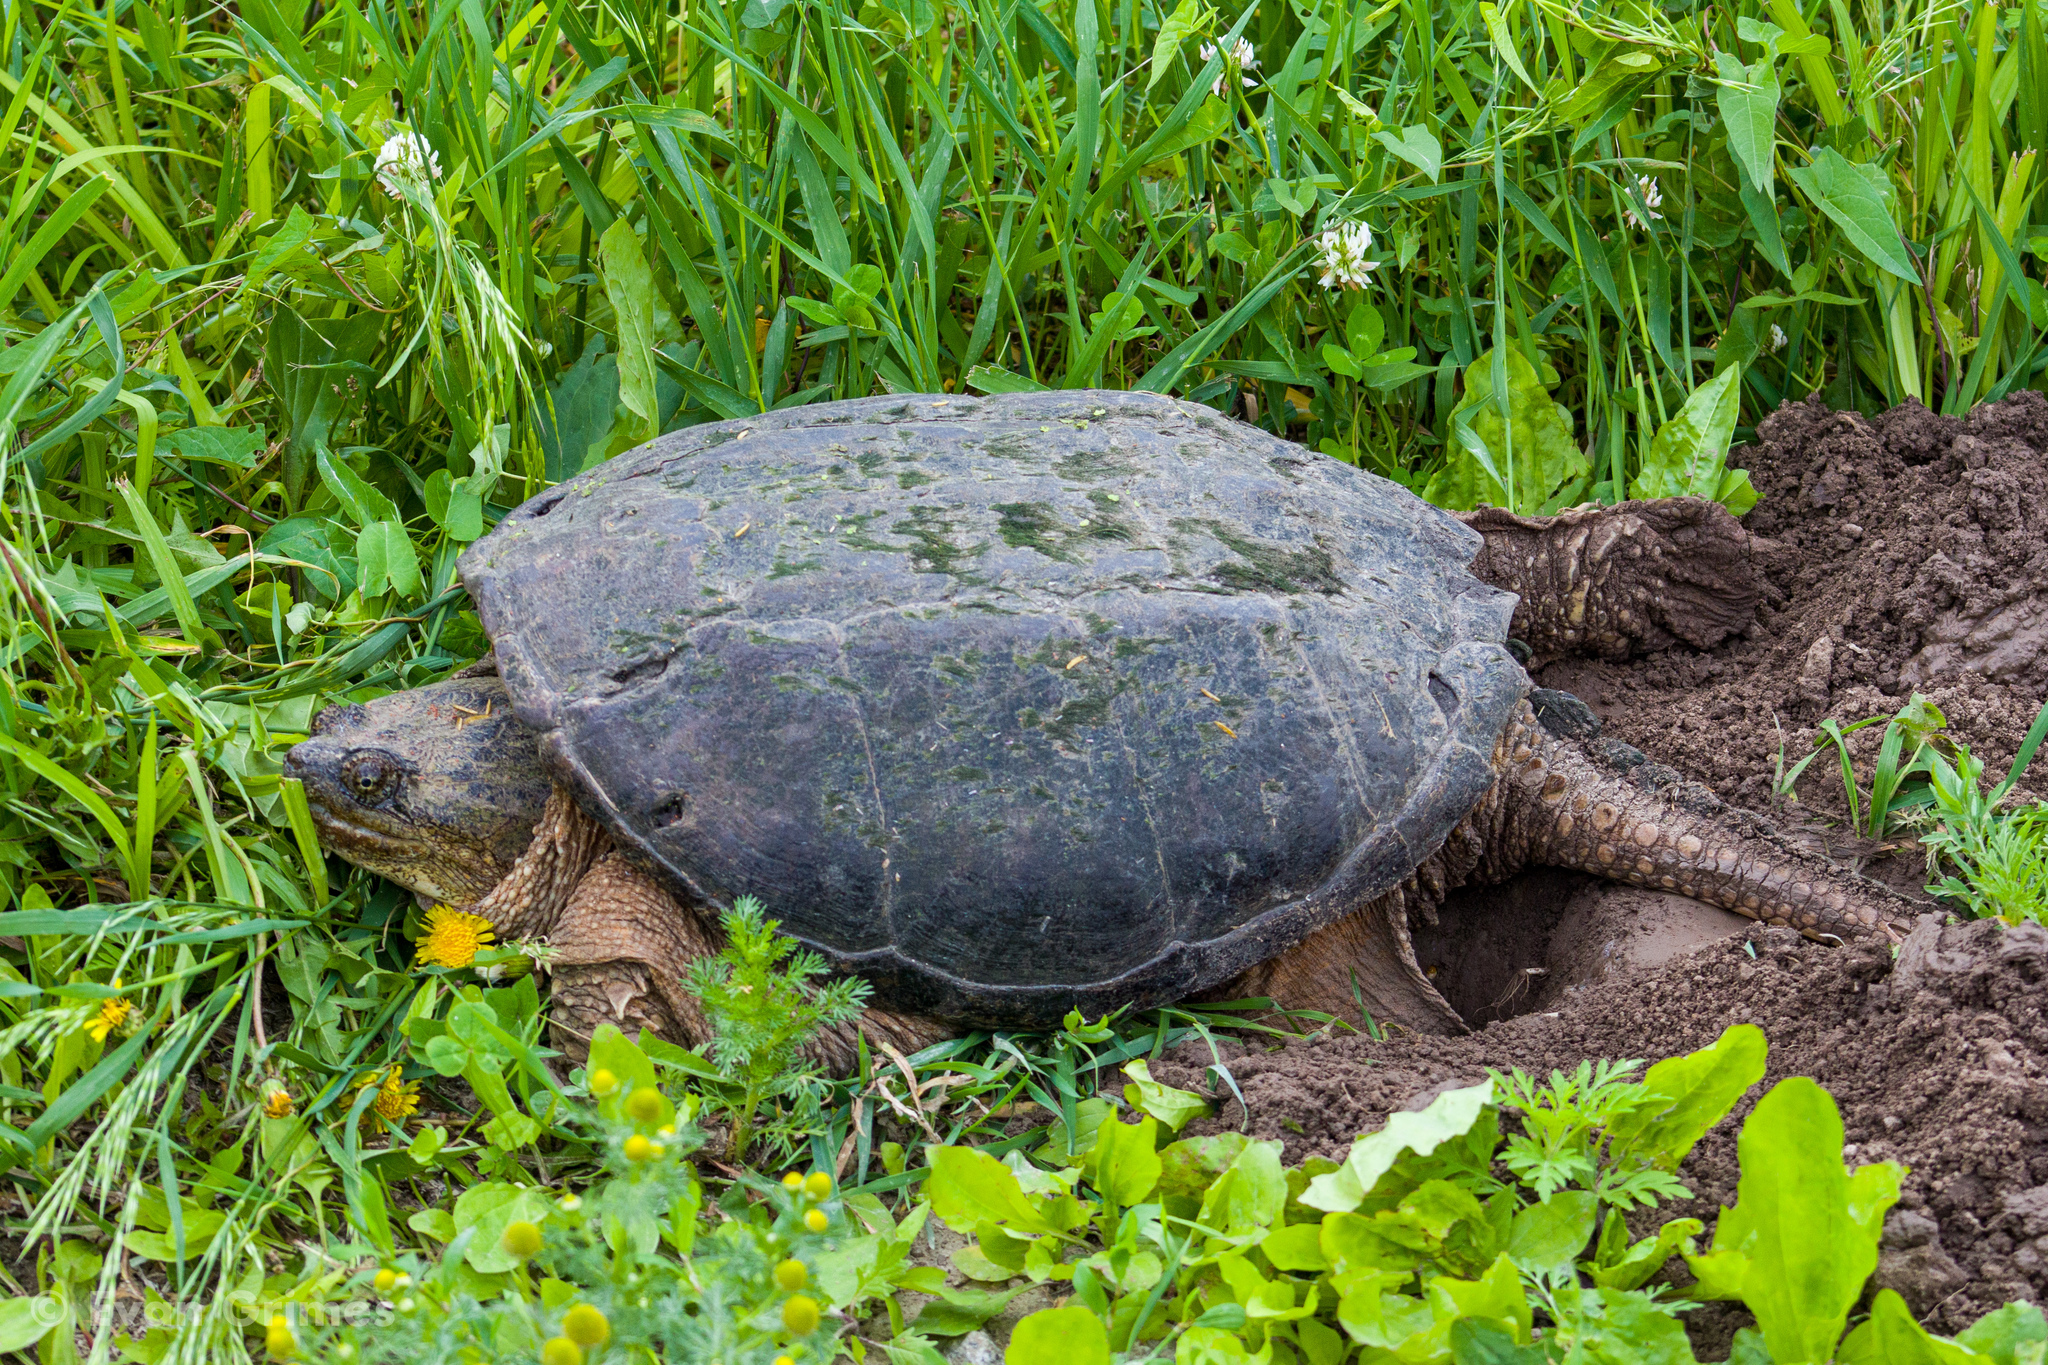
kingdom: Animalia
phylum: Chordata
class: Testudines
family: Chelydridae
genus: Chelydra
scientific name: Chelydra serpentina
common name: Common snapping turtle
